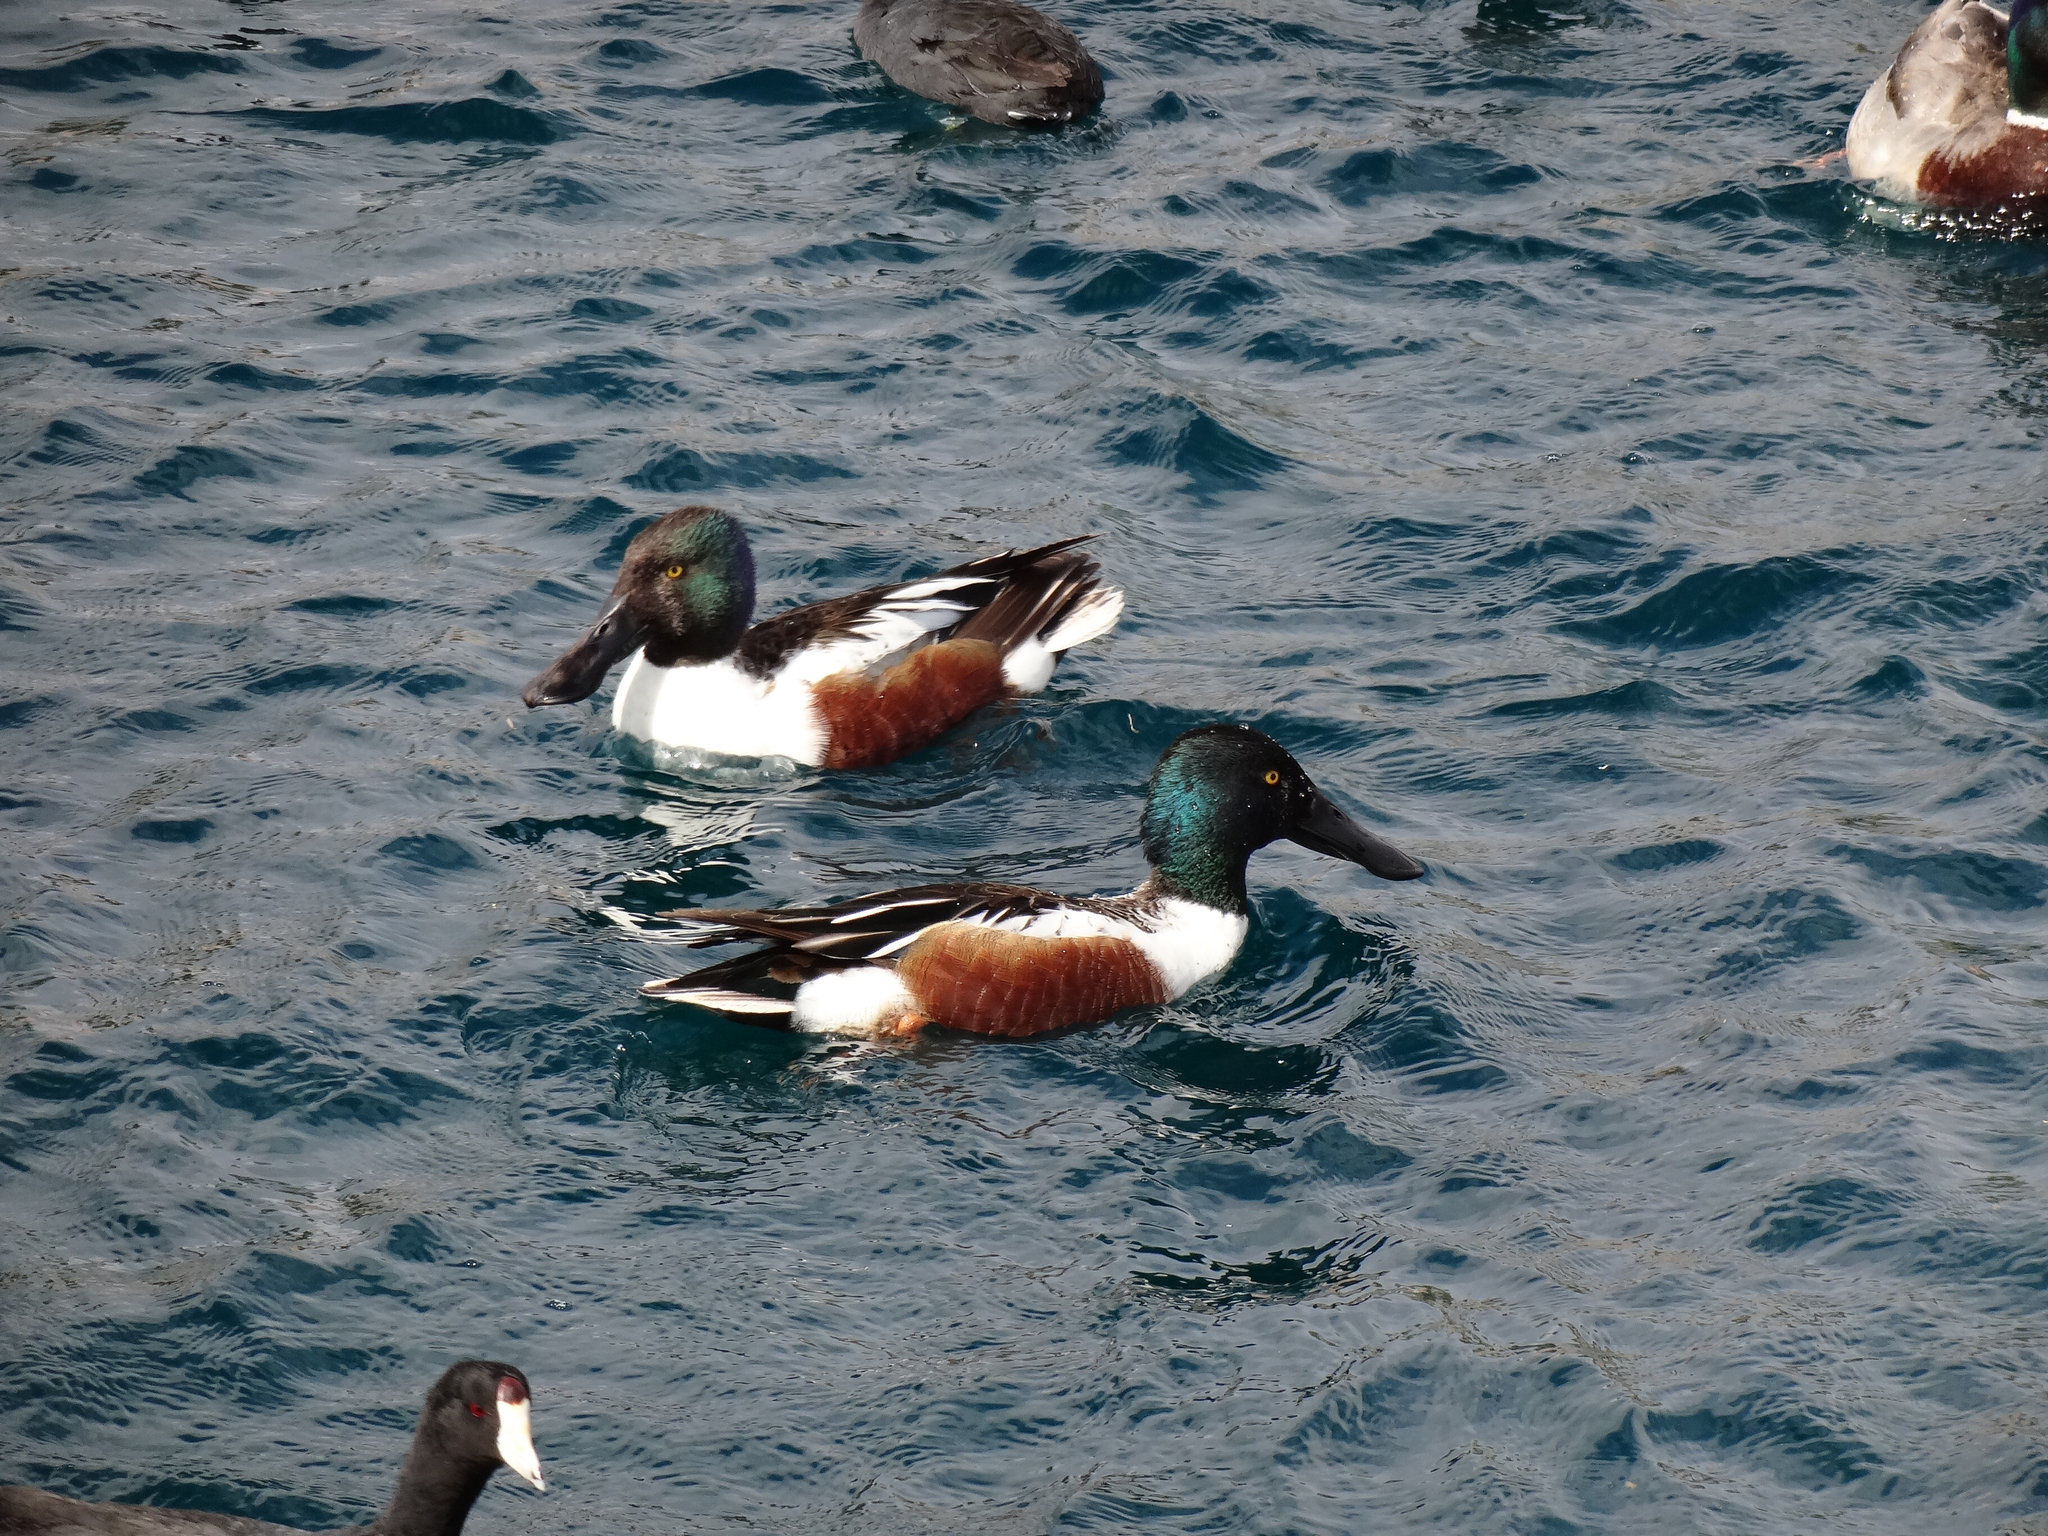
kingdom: Animalia
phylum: Chordata
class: Aves
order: Anseriformes
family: Anatidae
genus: Spatula
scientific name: Spatula clypeata
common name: Northern shoveler
